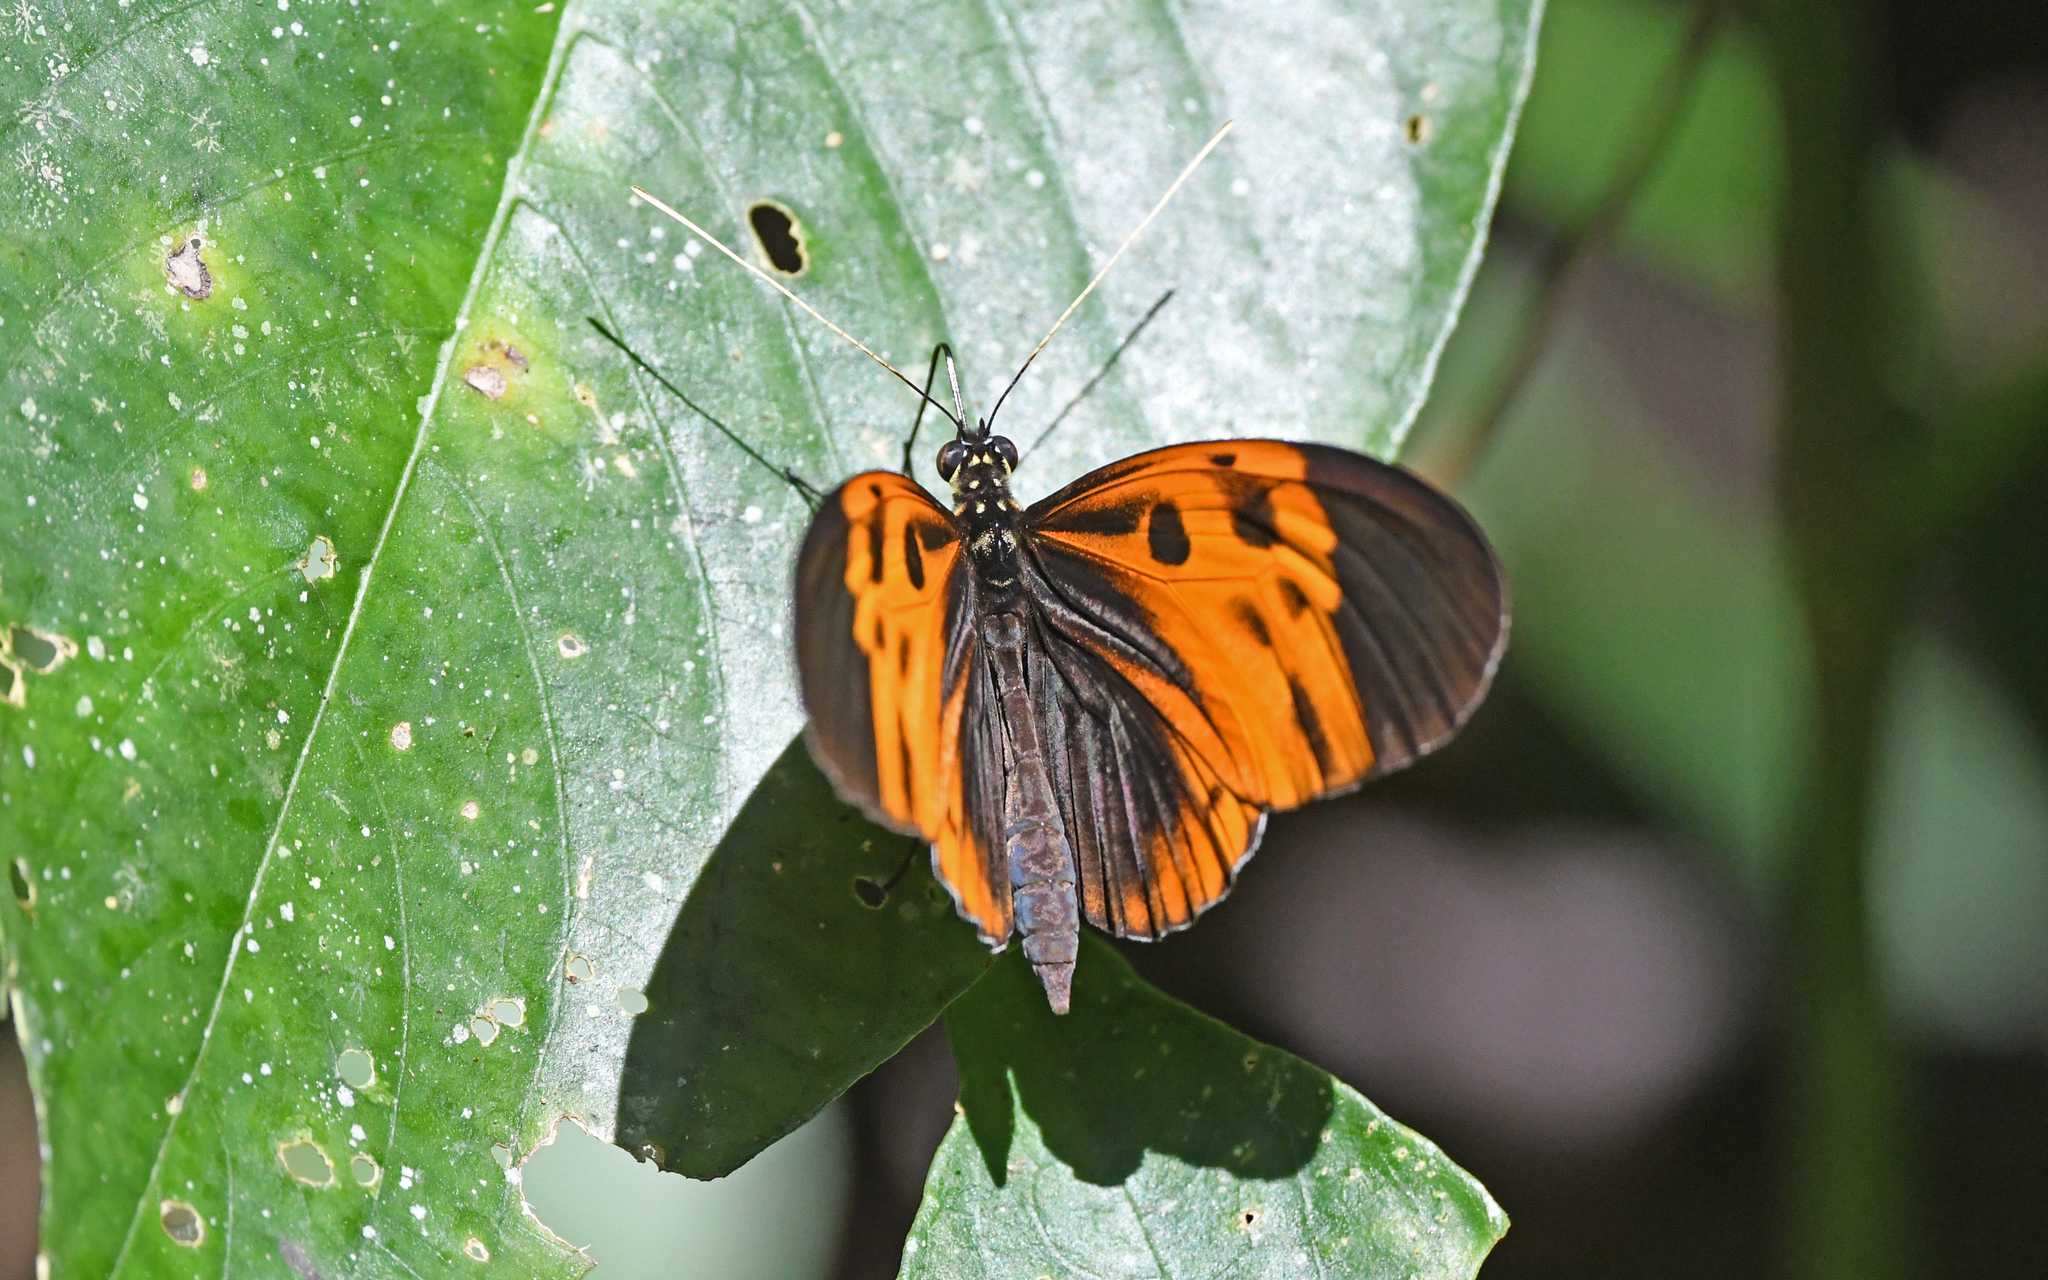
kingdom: Animalia
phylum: Arthropoda
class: Insecta
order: Lepidoptera
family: Nymphalidae
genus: Heliconius
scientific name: Heliconius numatus
